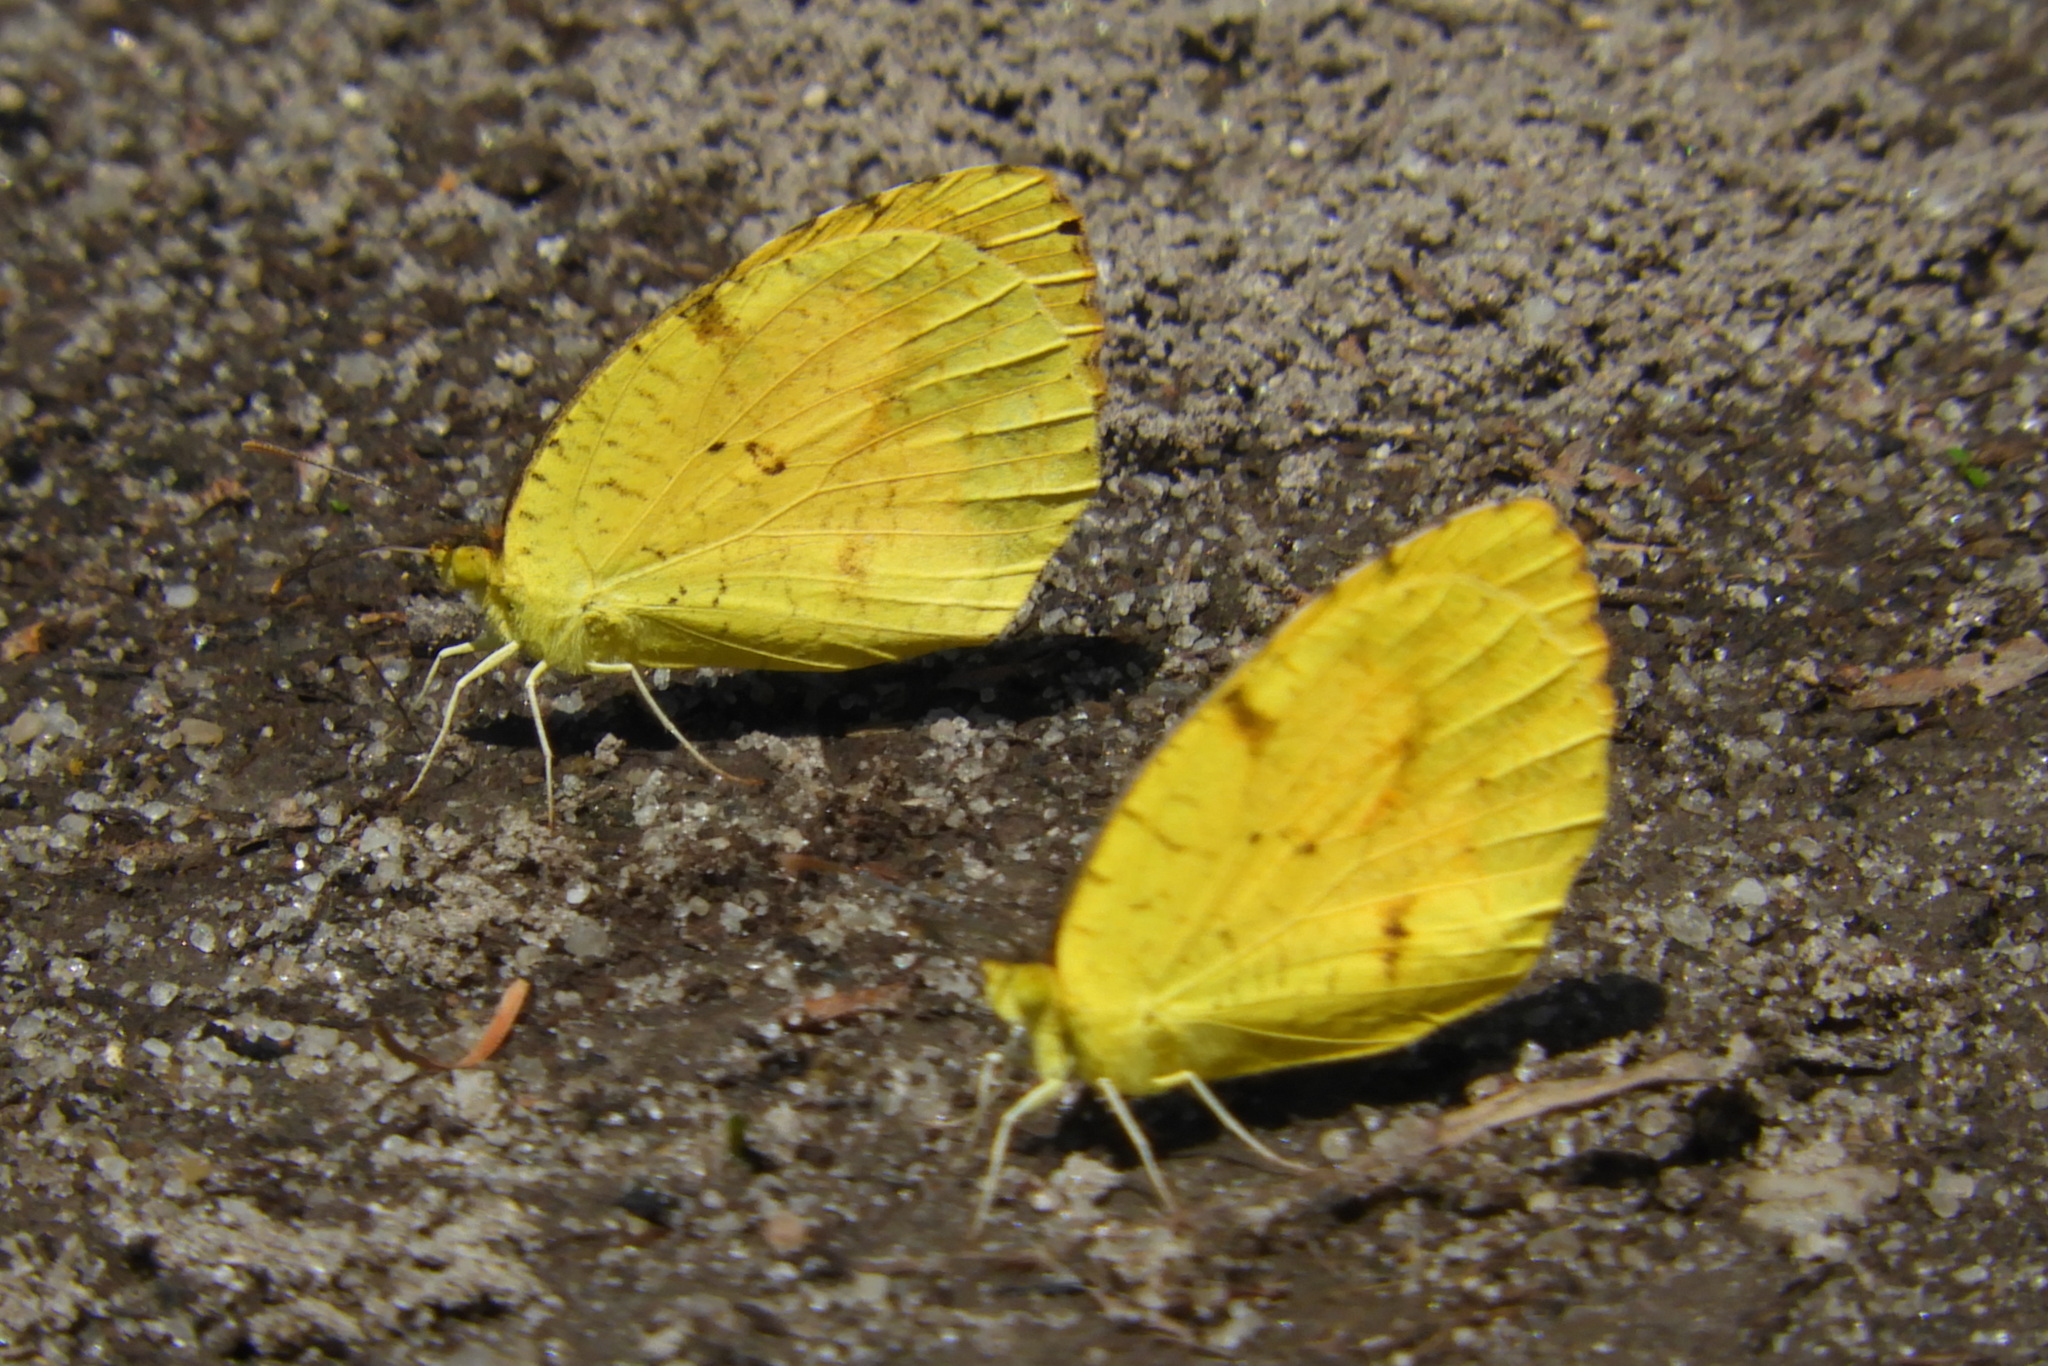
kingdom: Animalia
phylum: Arthropoda
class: Insecta
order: Lepidoptera
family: Pieridae
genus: Abaeis
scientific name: Abaeis nicippe
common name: Sleepy orange
